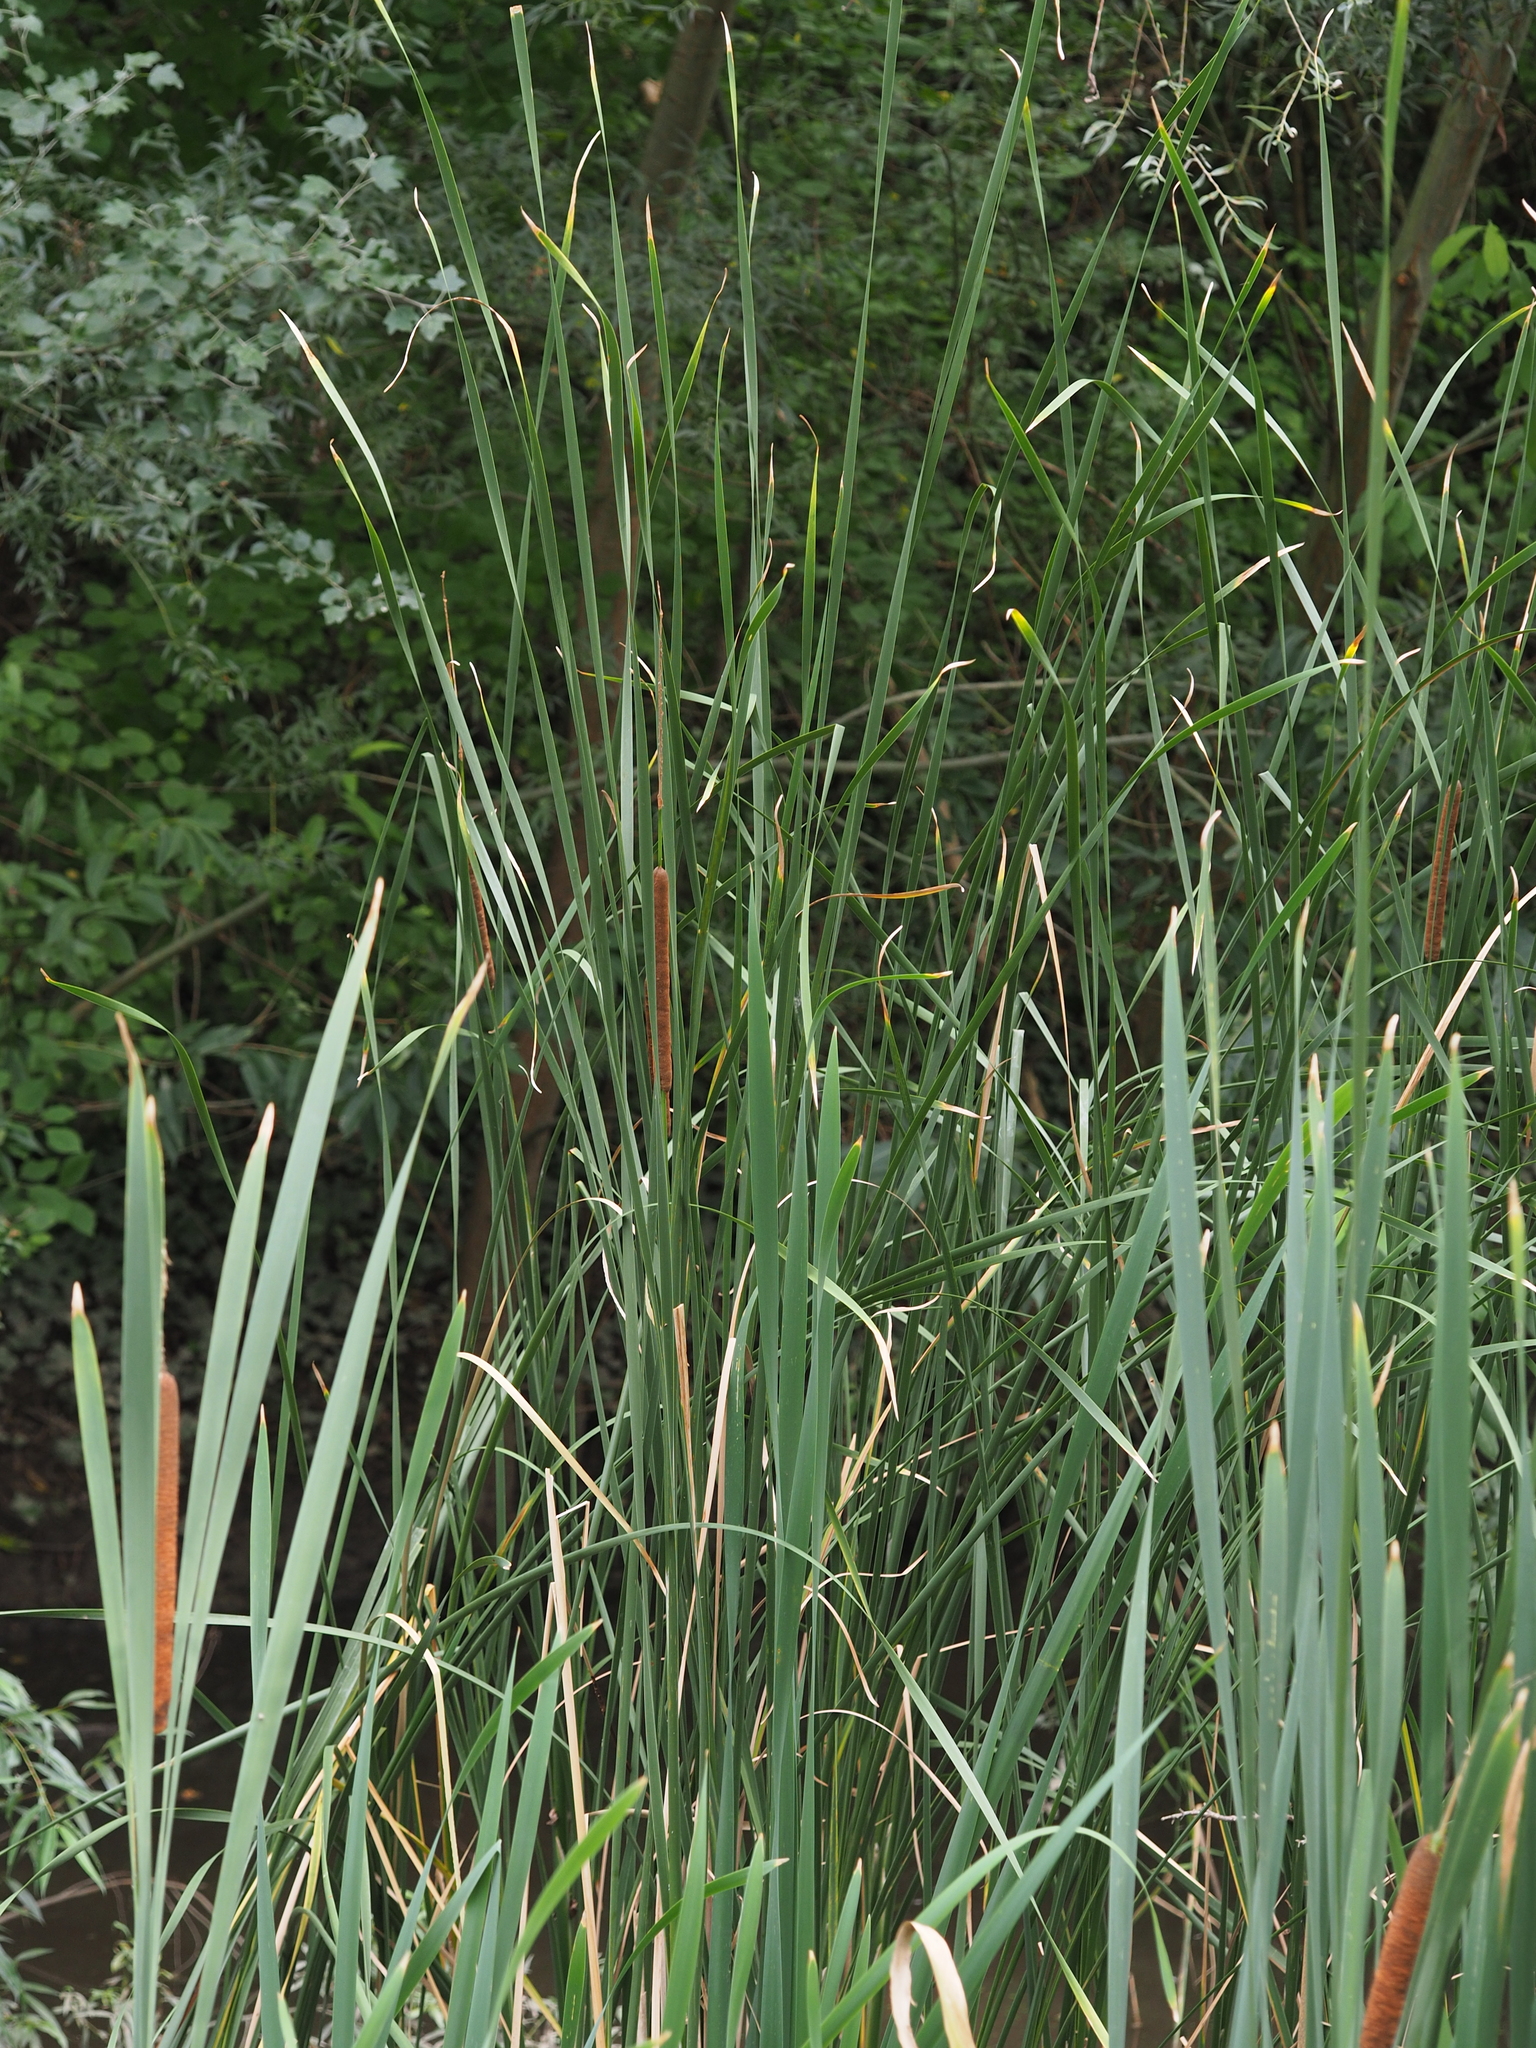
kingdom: Plantae
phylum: Tracheophyta
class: Liliopsida
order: Poales
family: Typhaceae
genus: Typha
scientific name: Typha angustifolia
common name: Lesser bulrush
